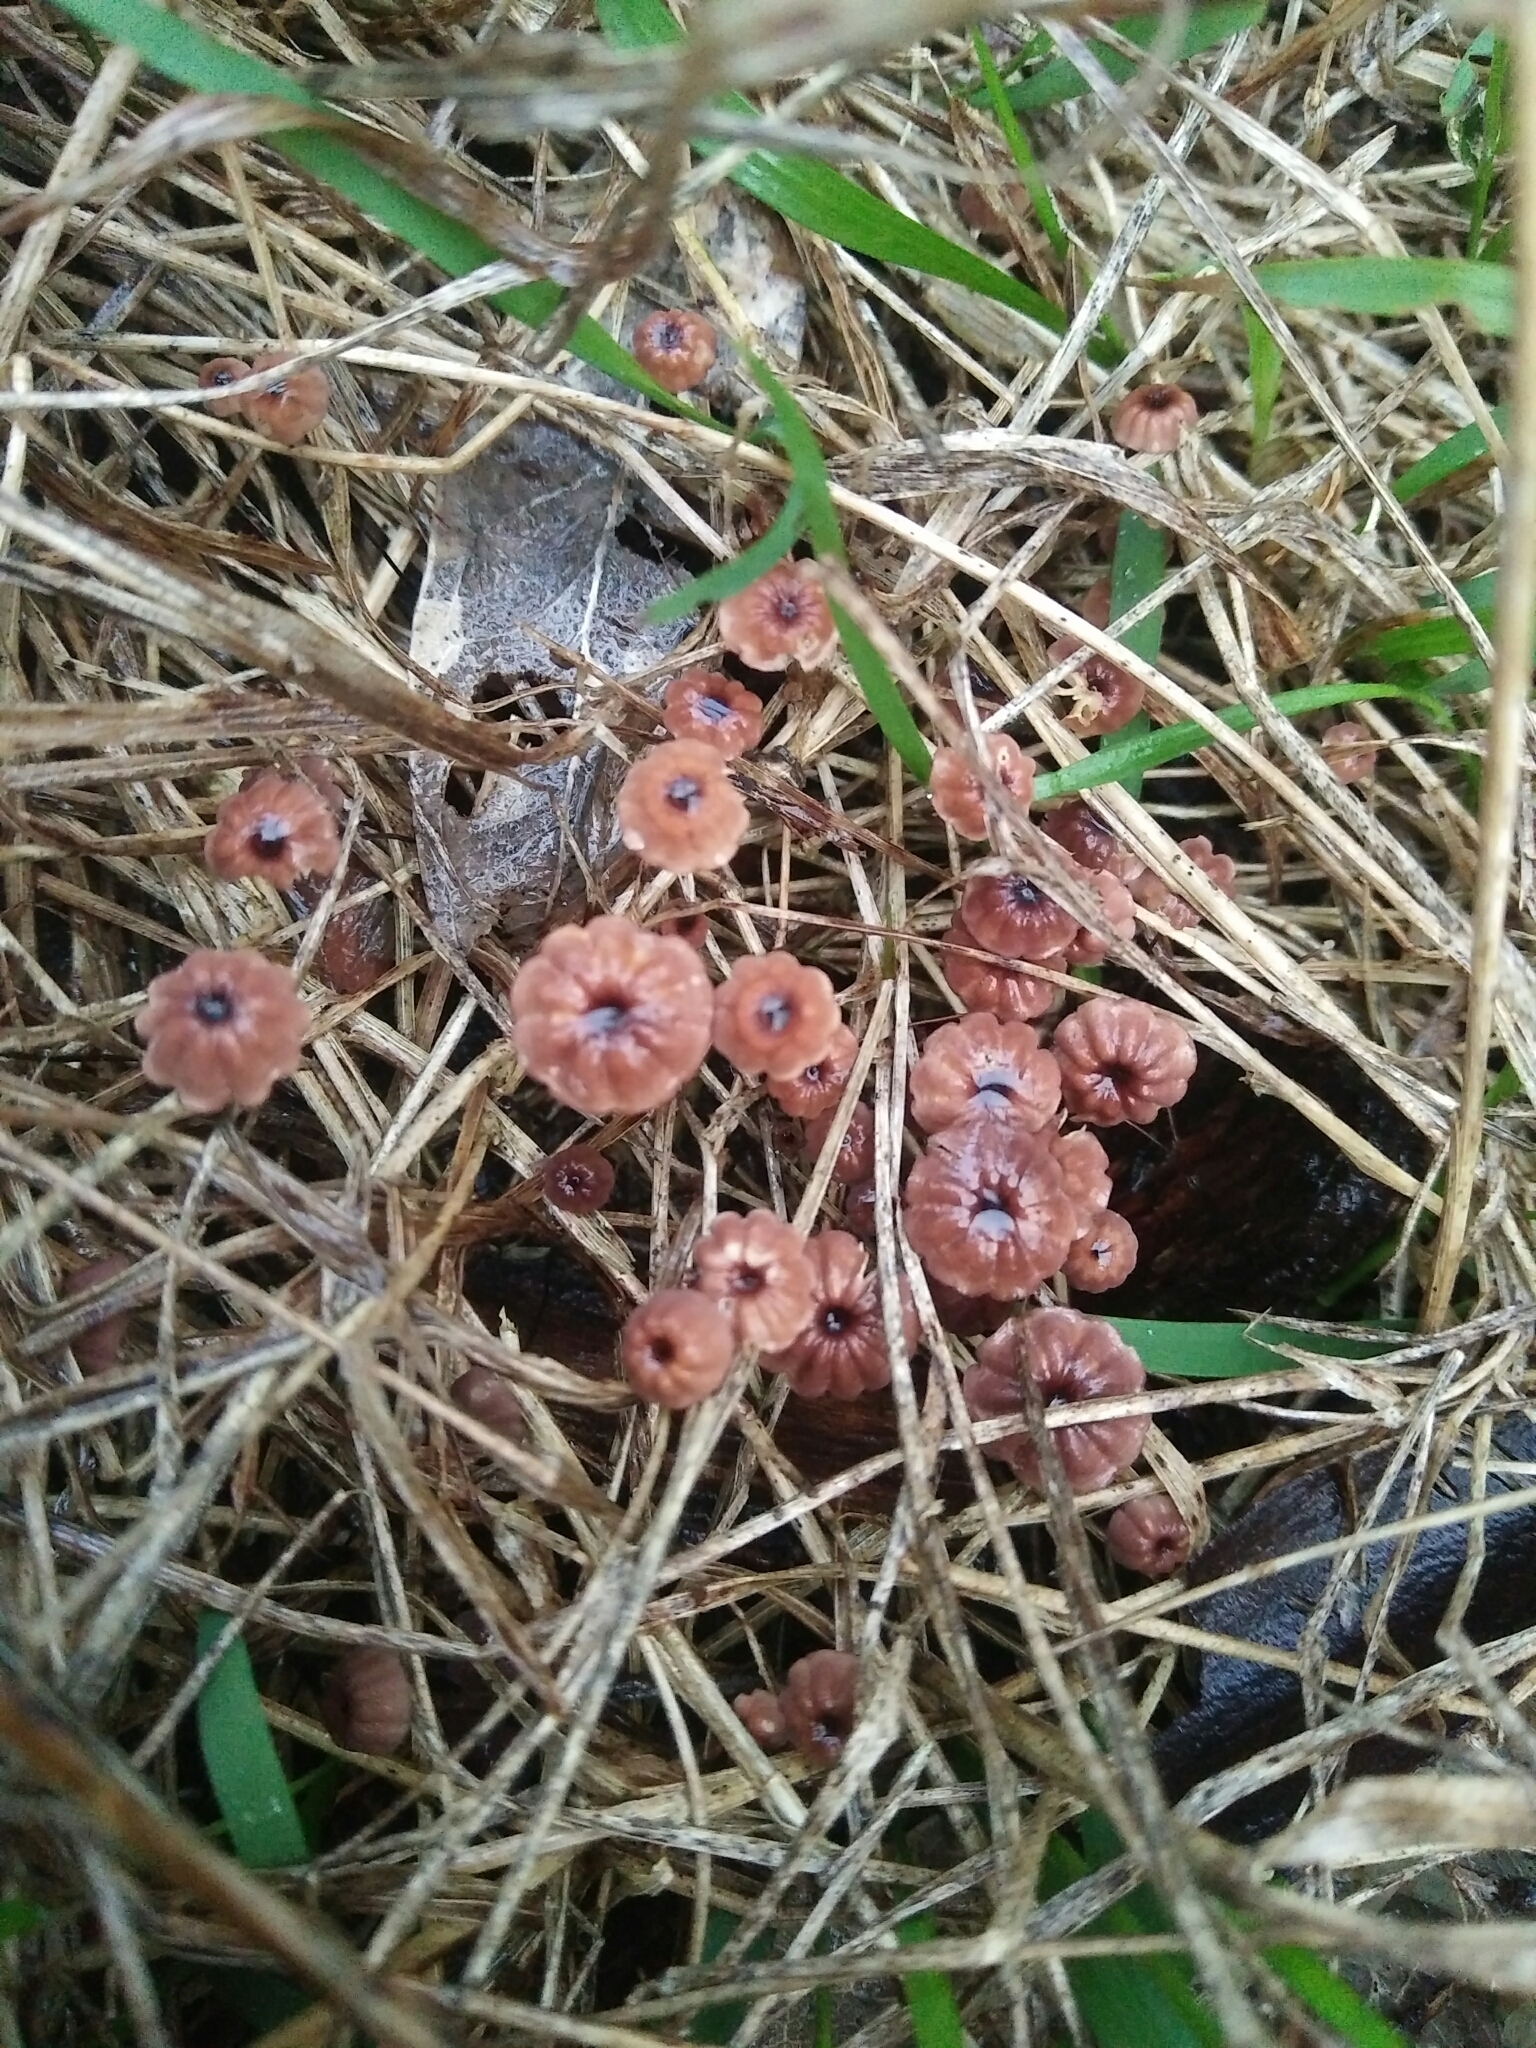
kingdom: Fungi
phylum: Basidiomycota
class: Agaricomycetes
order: Agaricales
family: Marasmiaceae
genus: Marasmius
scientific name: Marasmius crinis-equi
